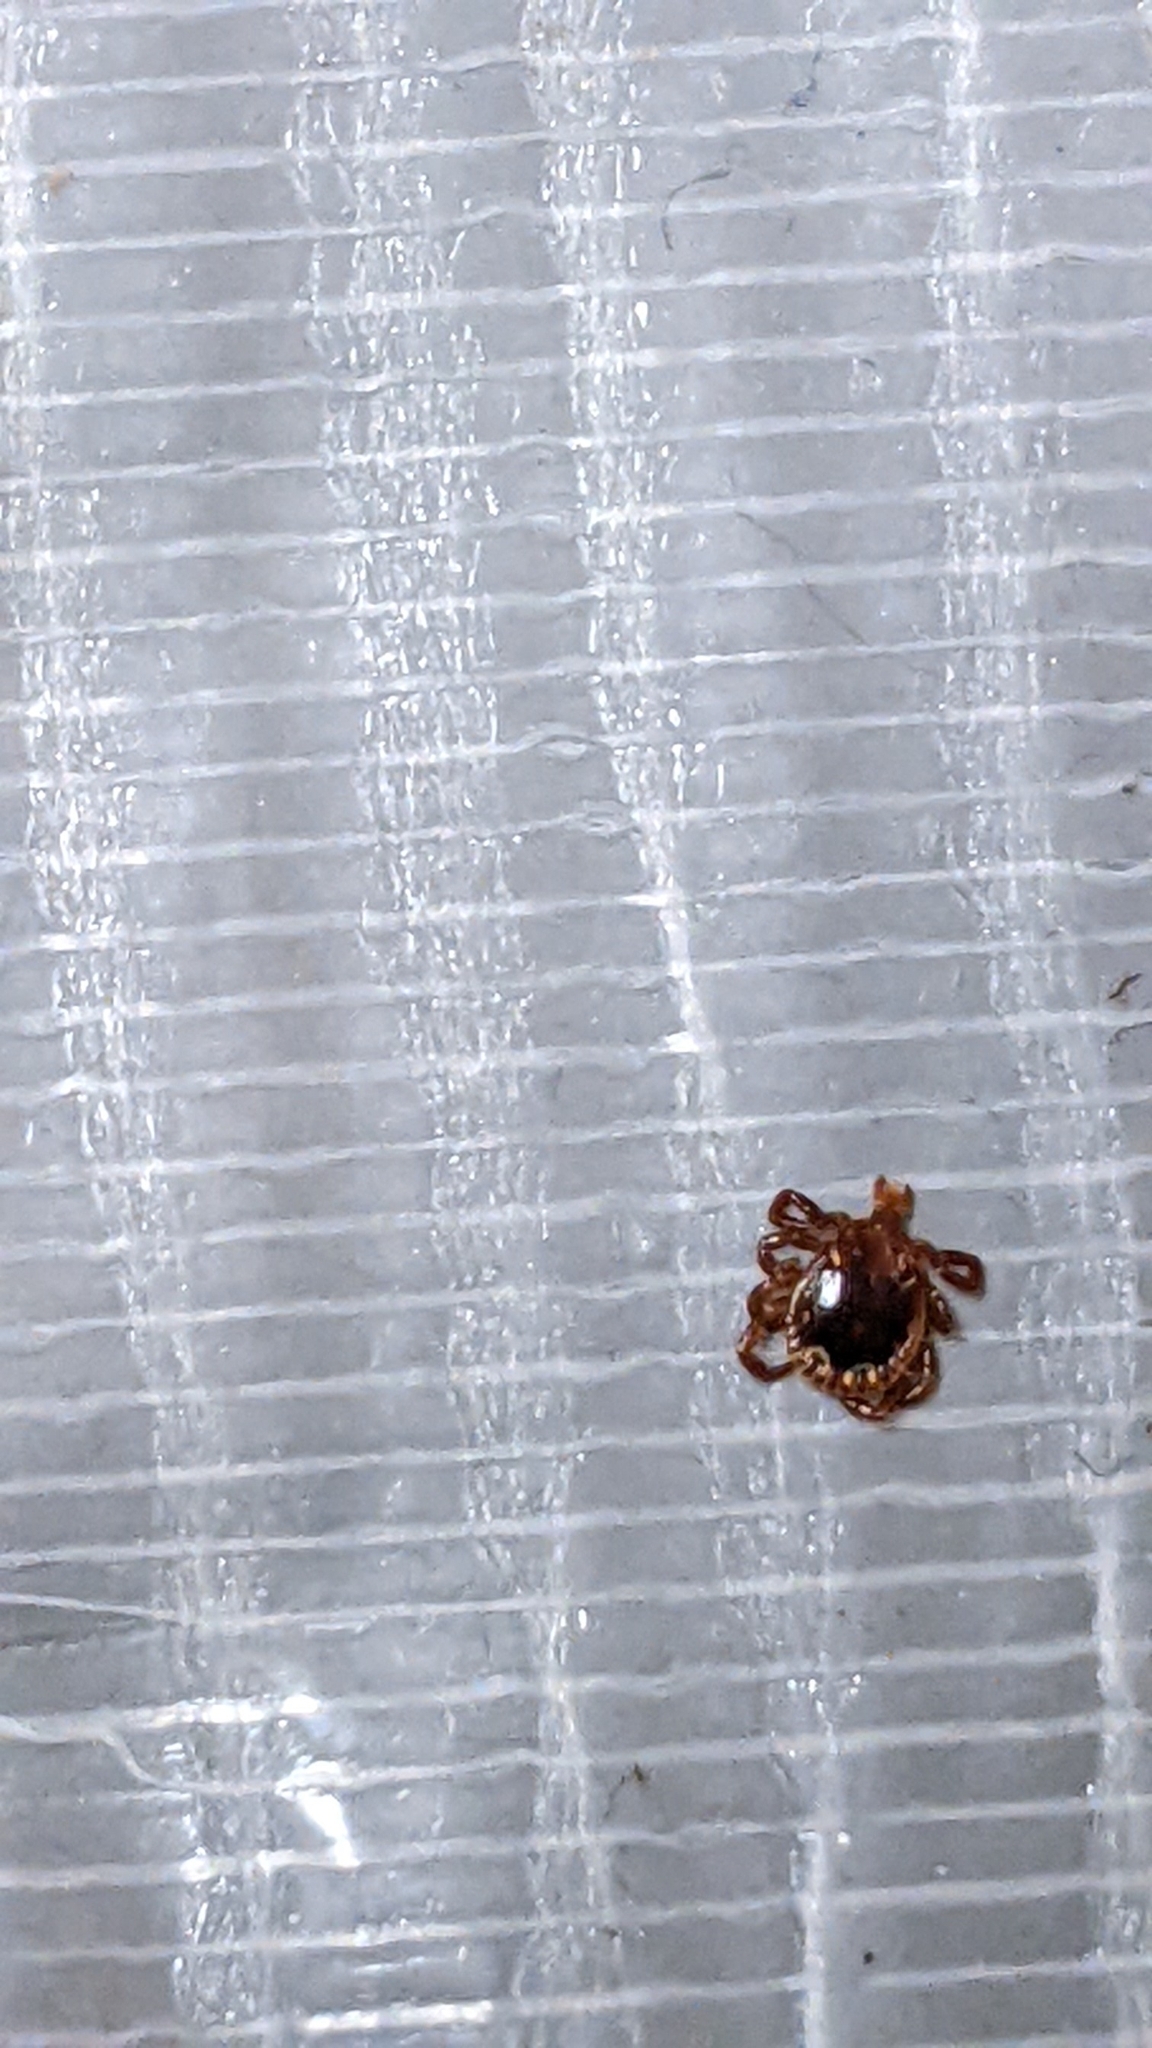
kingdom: Animalia
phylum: Arthropoda
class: Arachnida
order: Ixodida
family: Ixodidae
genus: Amblyomma
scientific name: Amblyomma americanum
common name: Lone star tick
